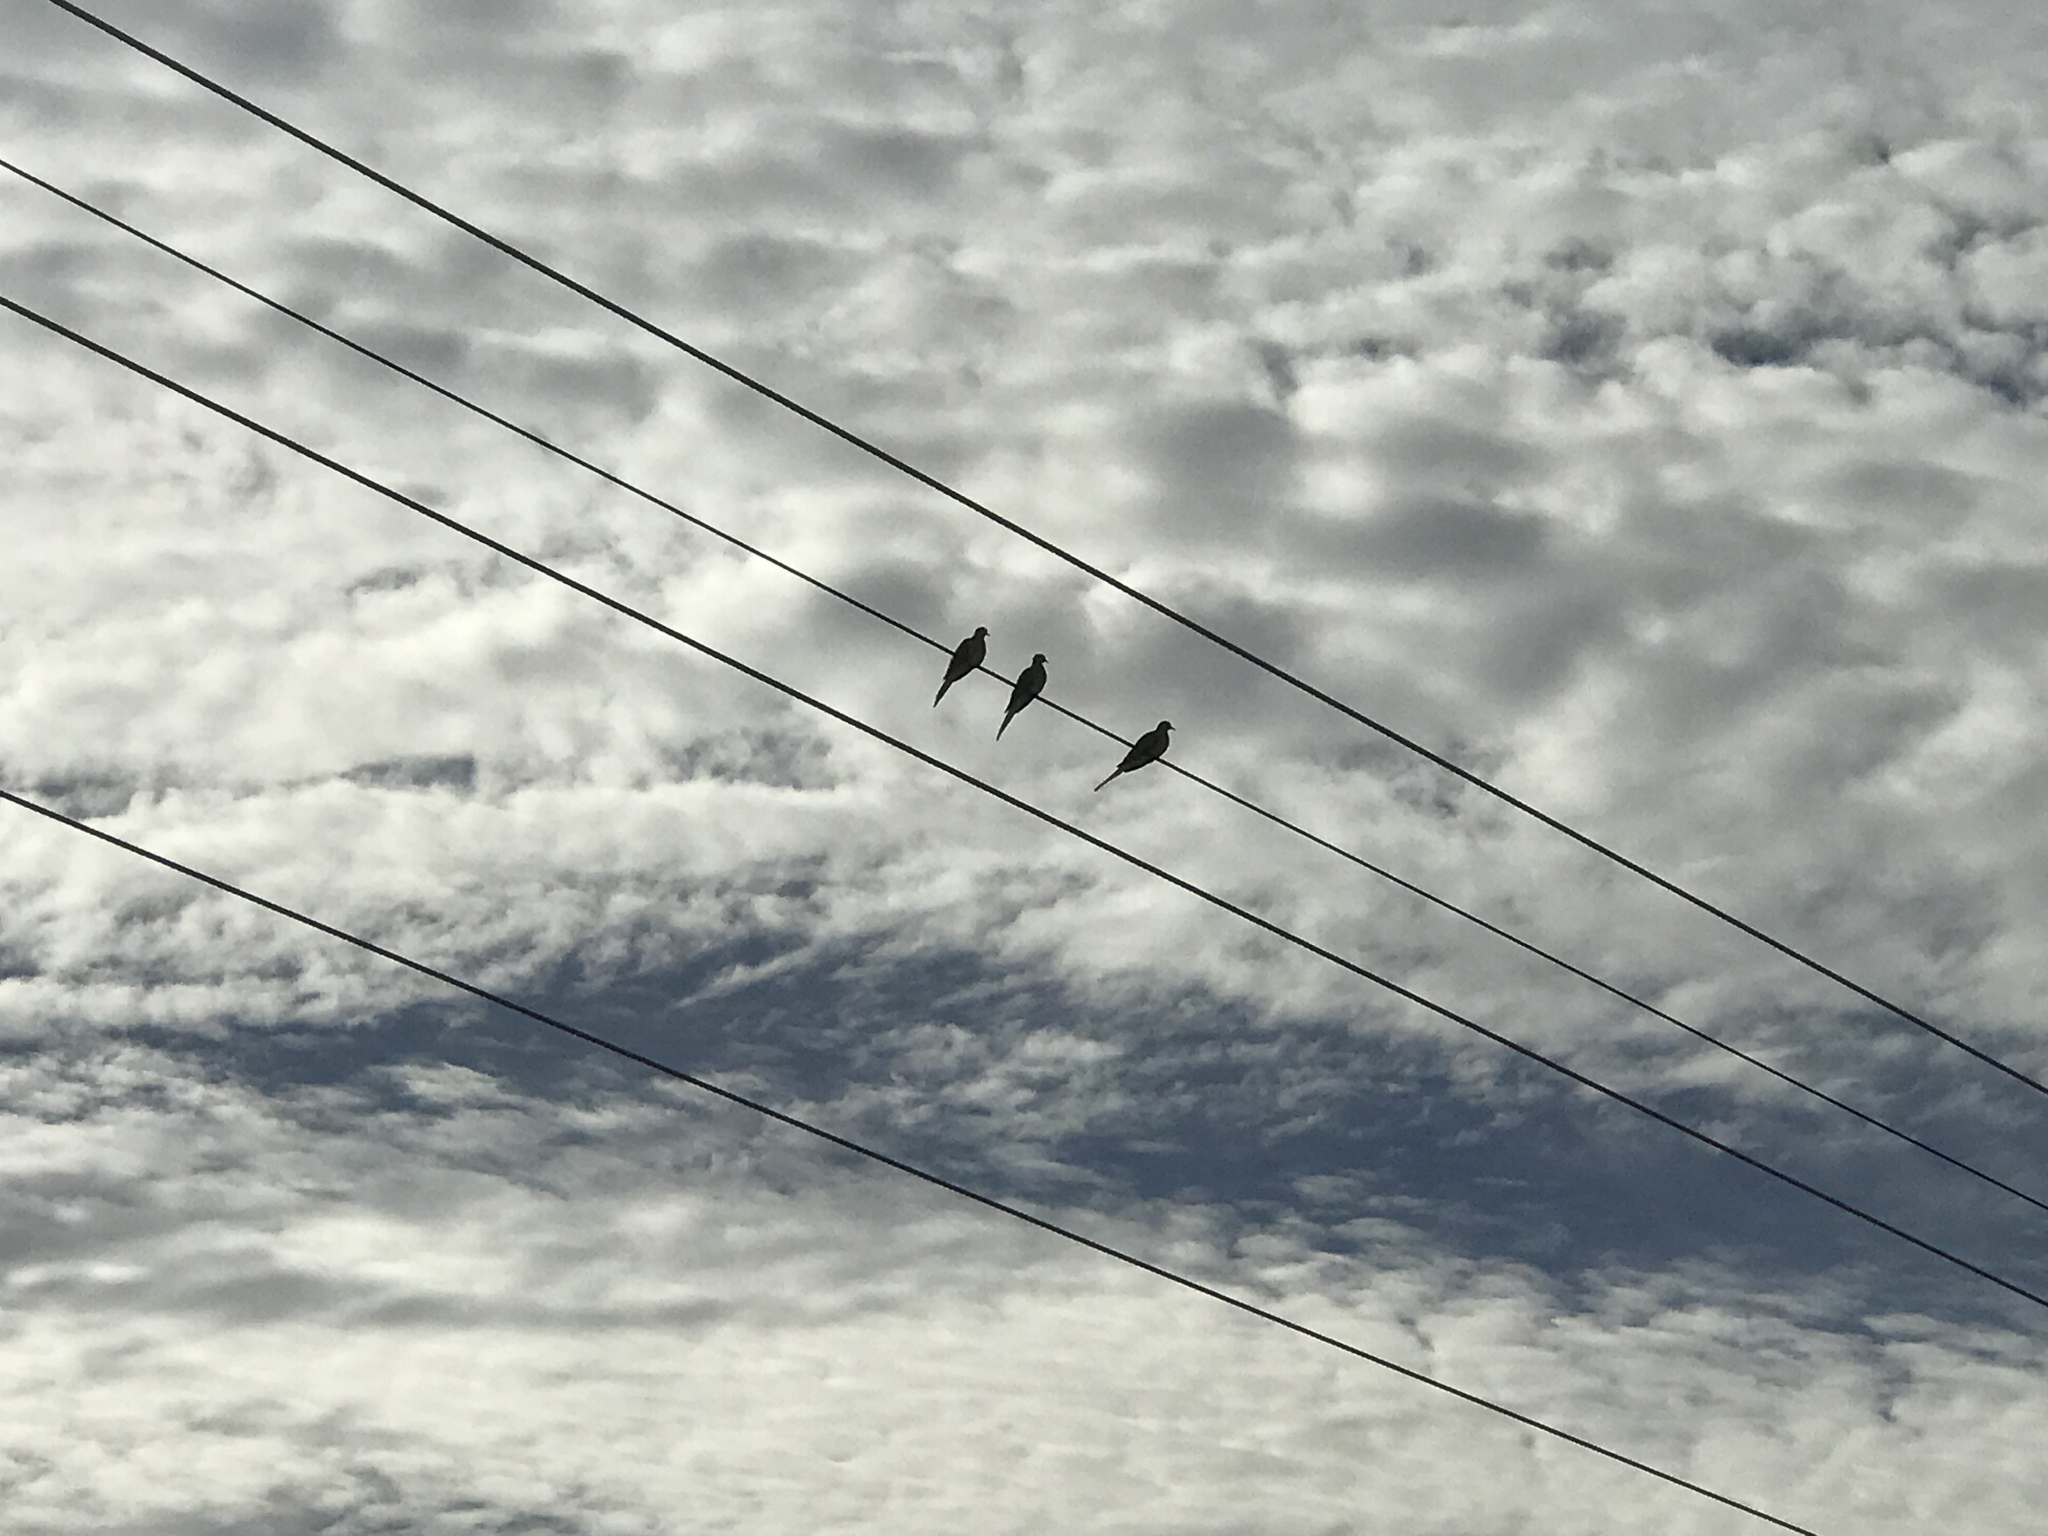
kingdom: Animalia
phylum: Chordata
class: Aves
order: Columbiformes
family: Columbidae
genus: Zenaida
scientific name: Zenaida macroura
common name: Mourning dove
